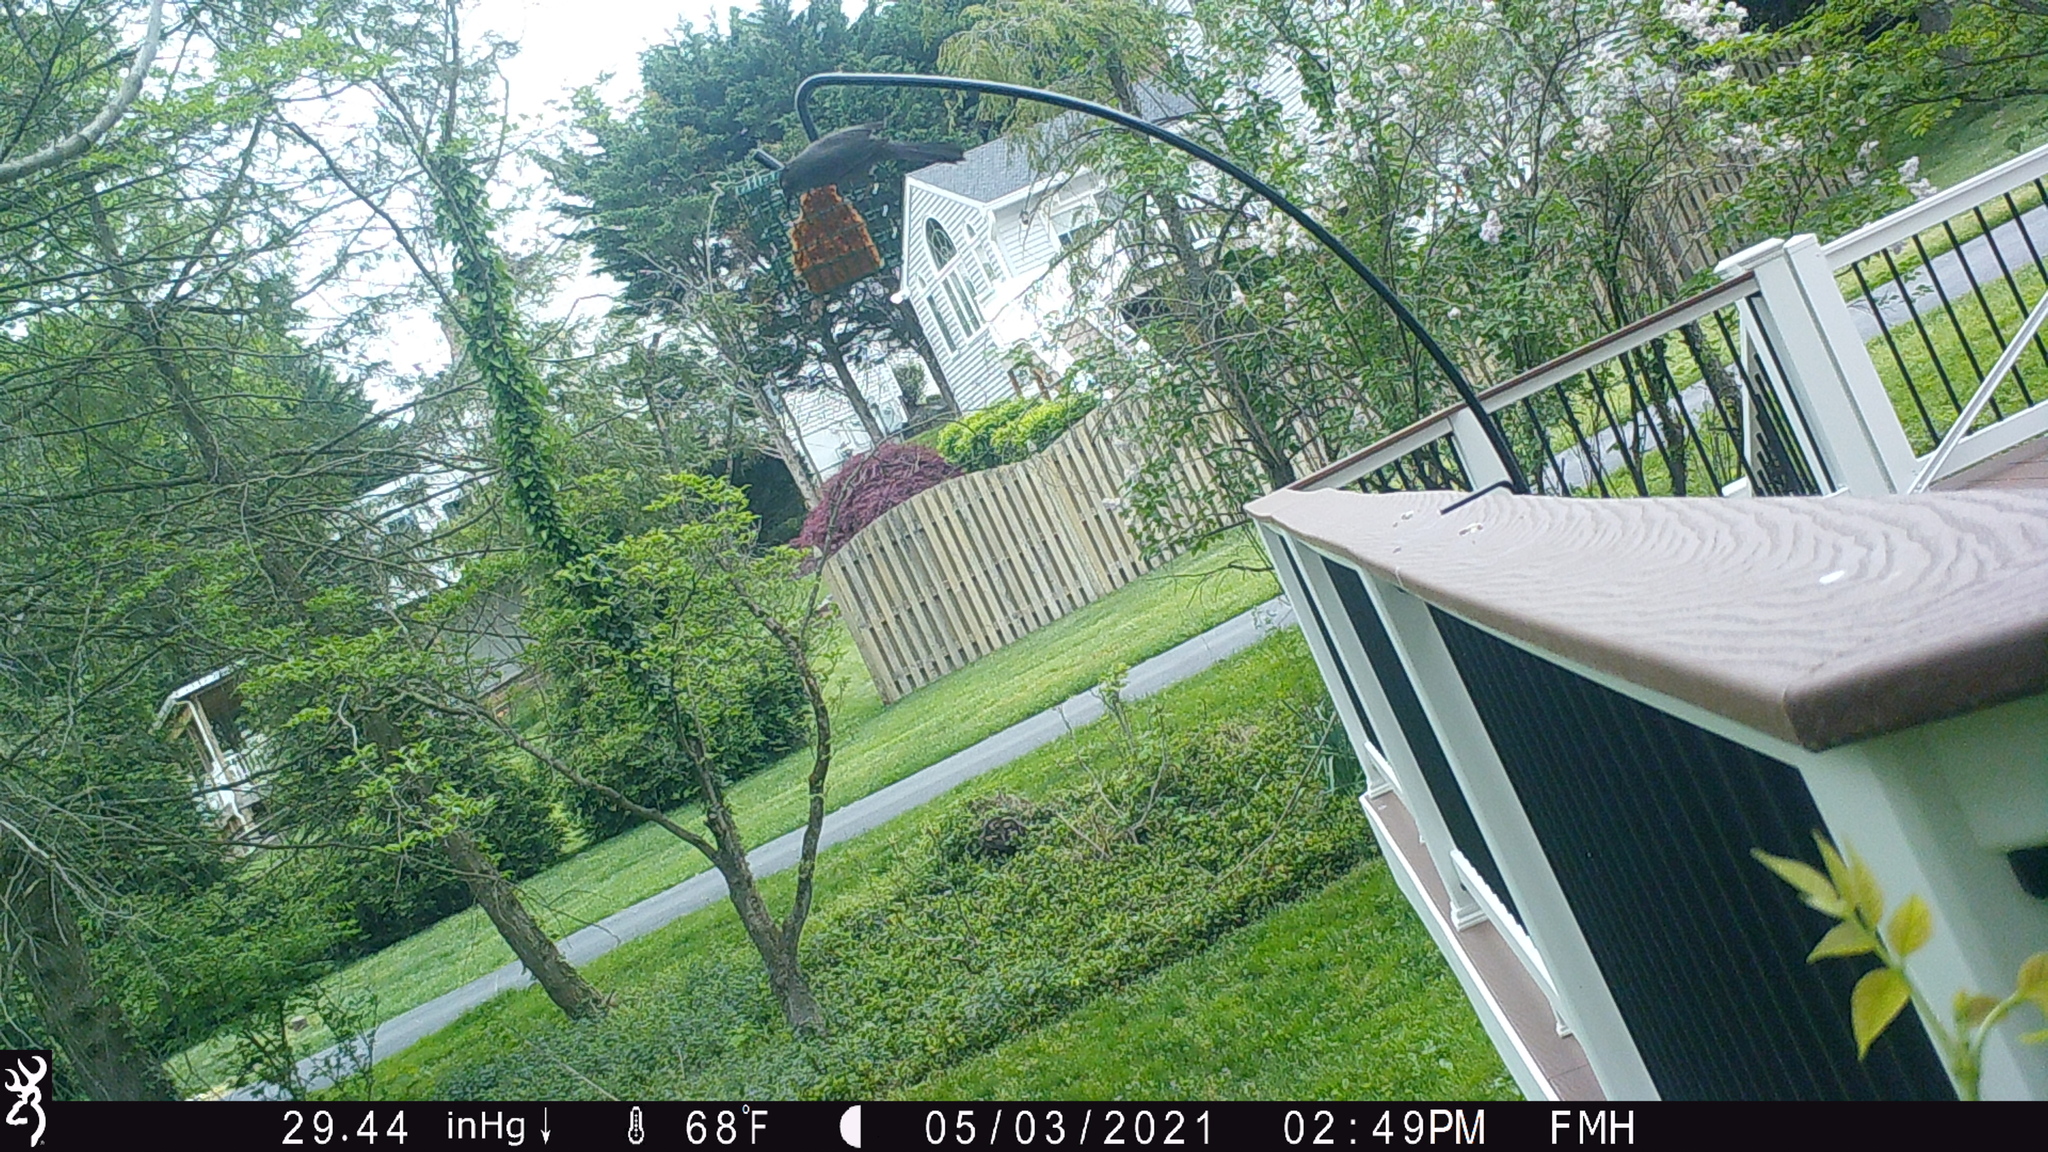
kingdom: Animalia
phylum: Chordata
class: Aves
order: Passeriformes
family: Mimidae
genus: Dumetella
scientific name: Dumetella carolinensis
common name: Gray catbird
